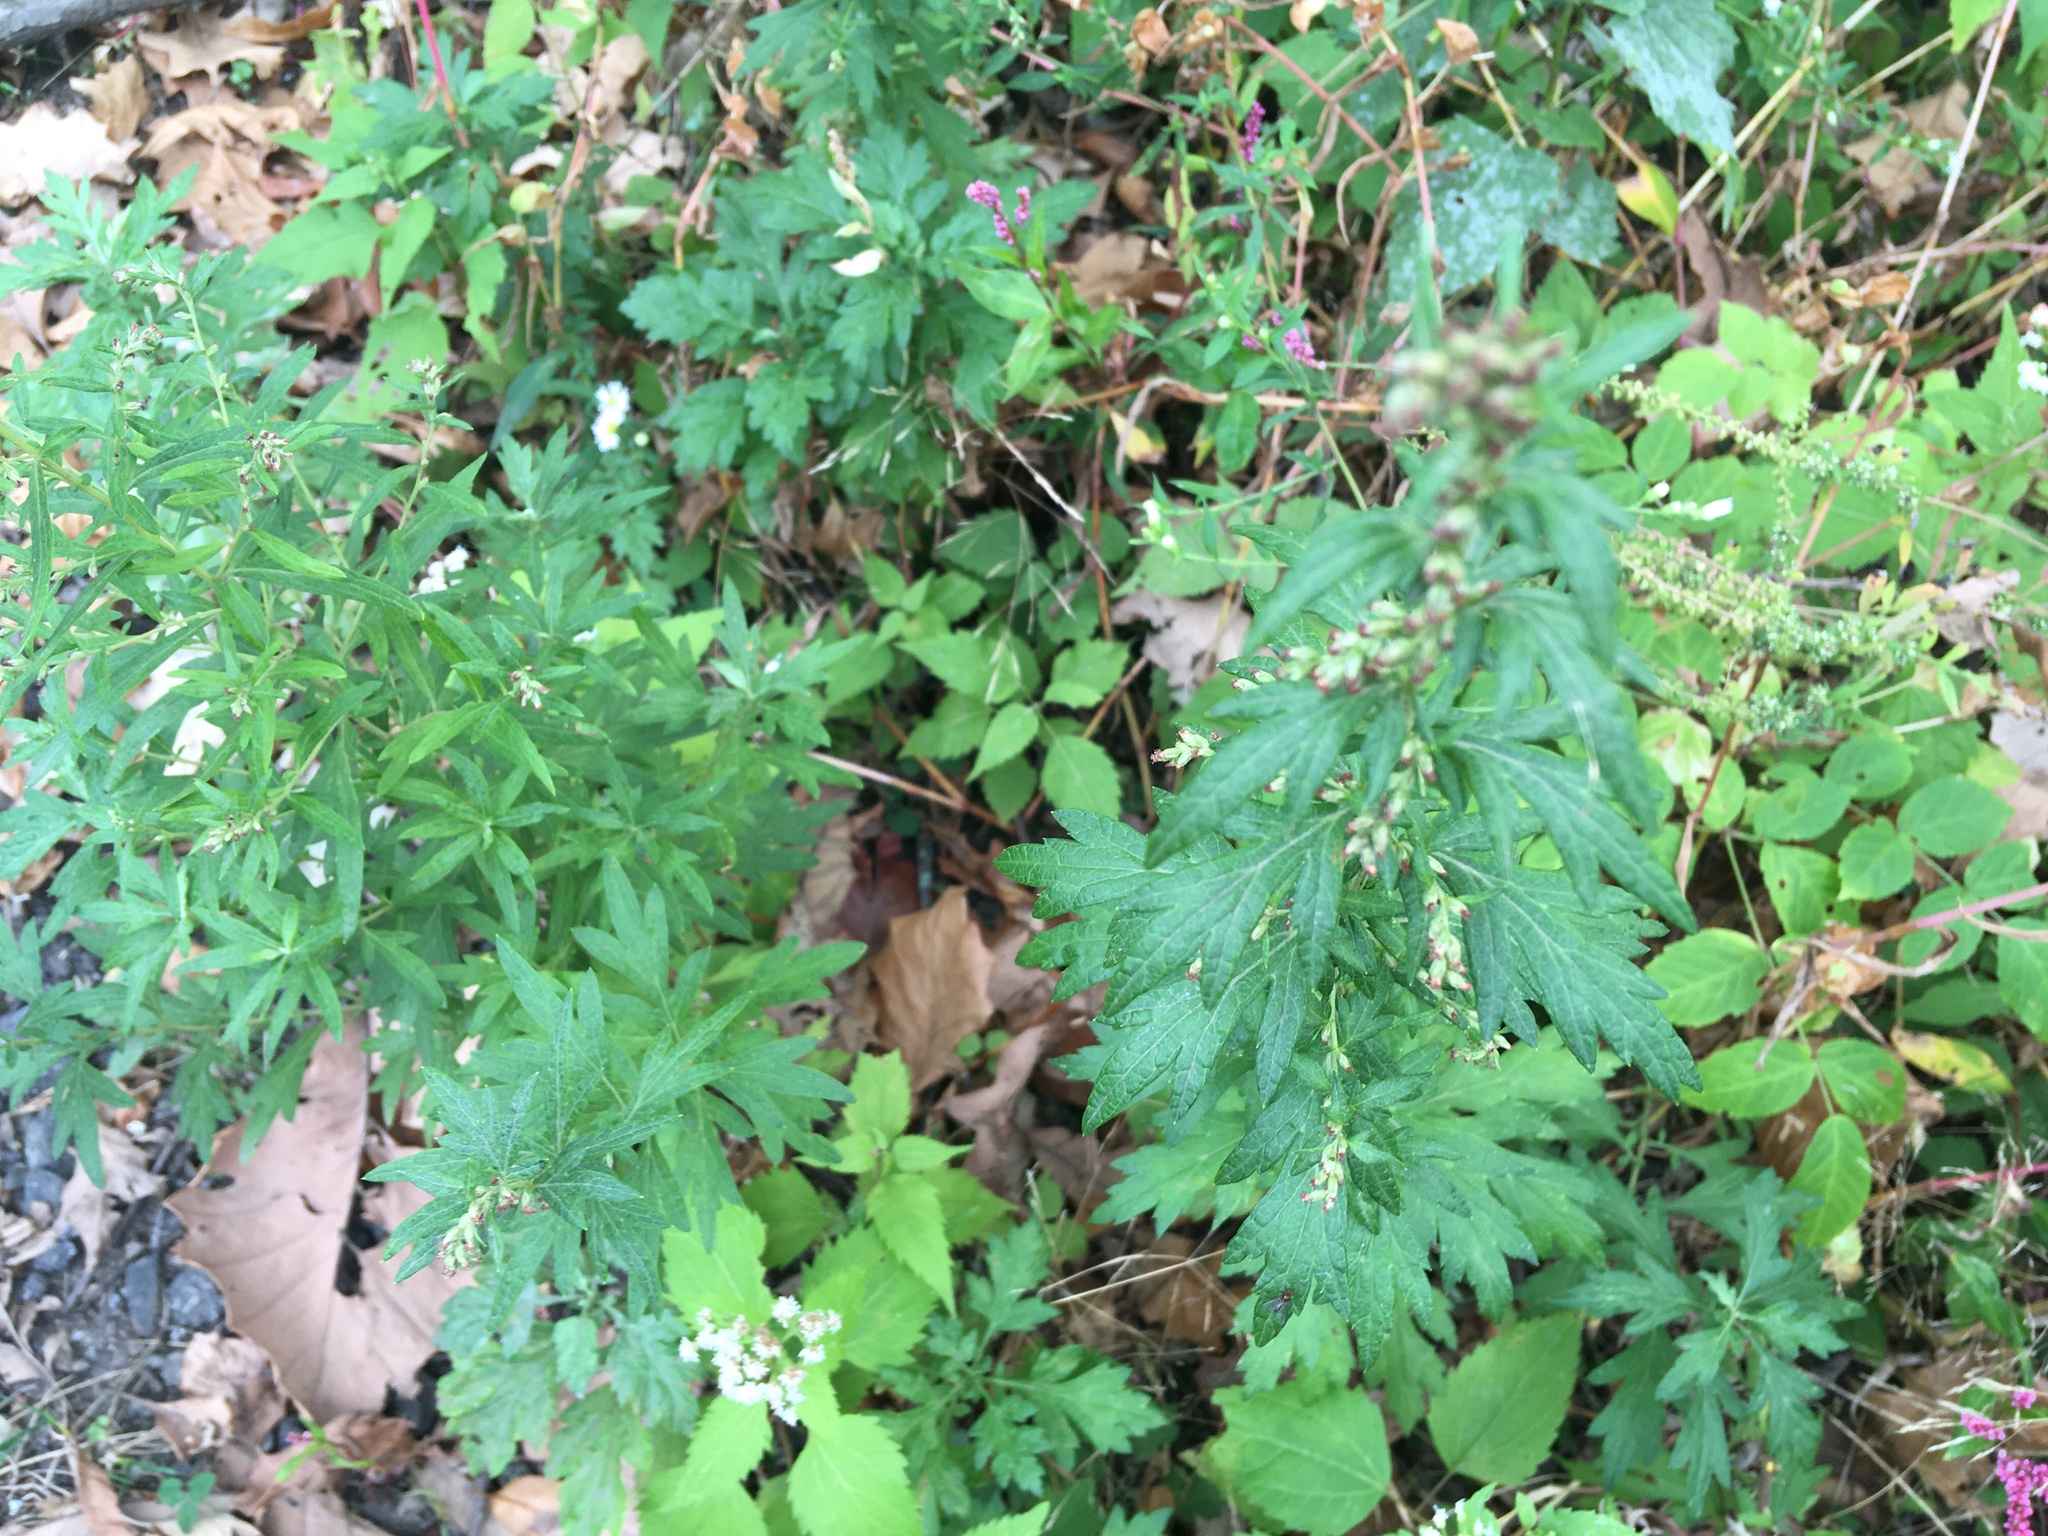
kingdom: Plantae
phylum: Tracheophyta
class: Magnoliopsida
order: Asterales
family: Asteraceae
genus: Artemisia
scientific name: Artemisia vulgaris
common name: Mugwort
